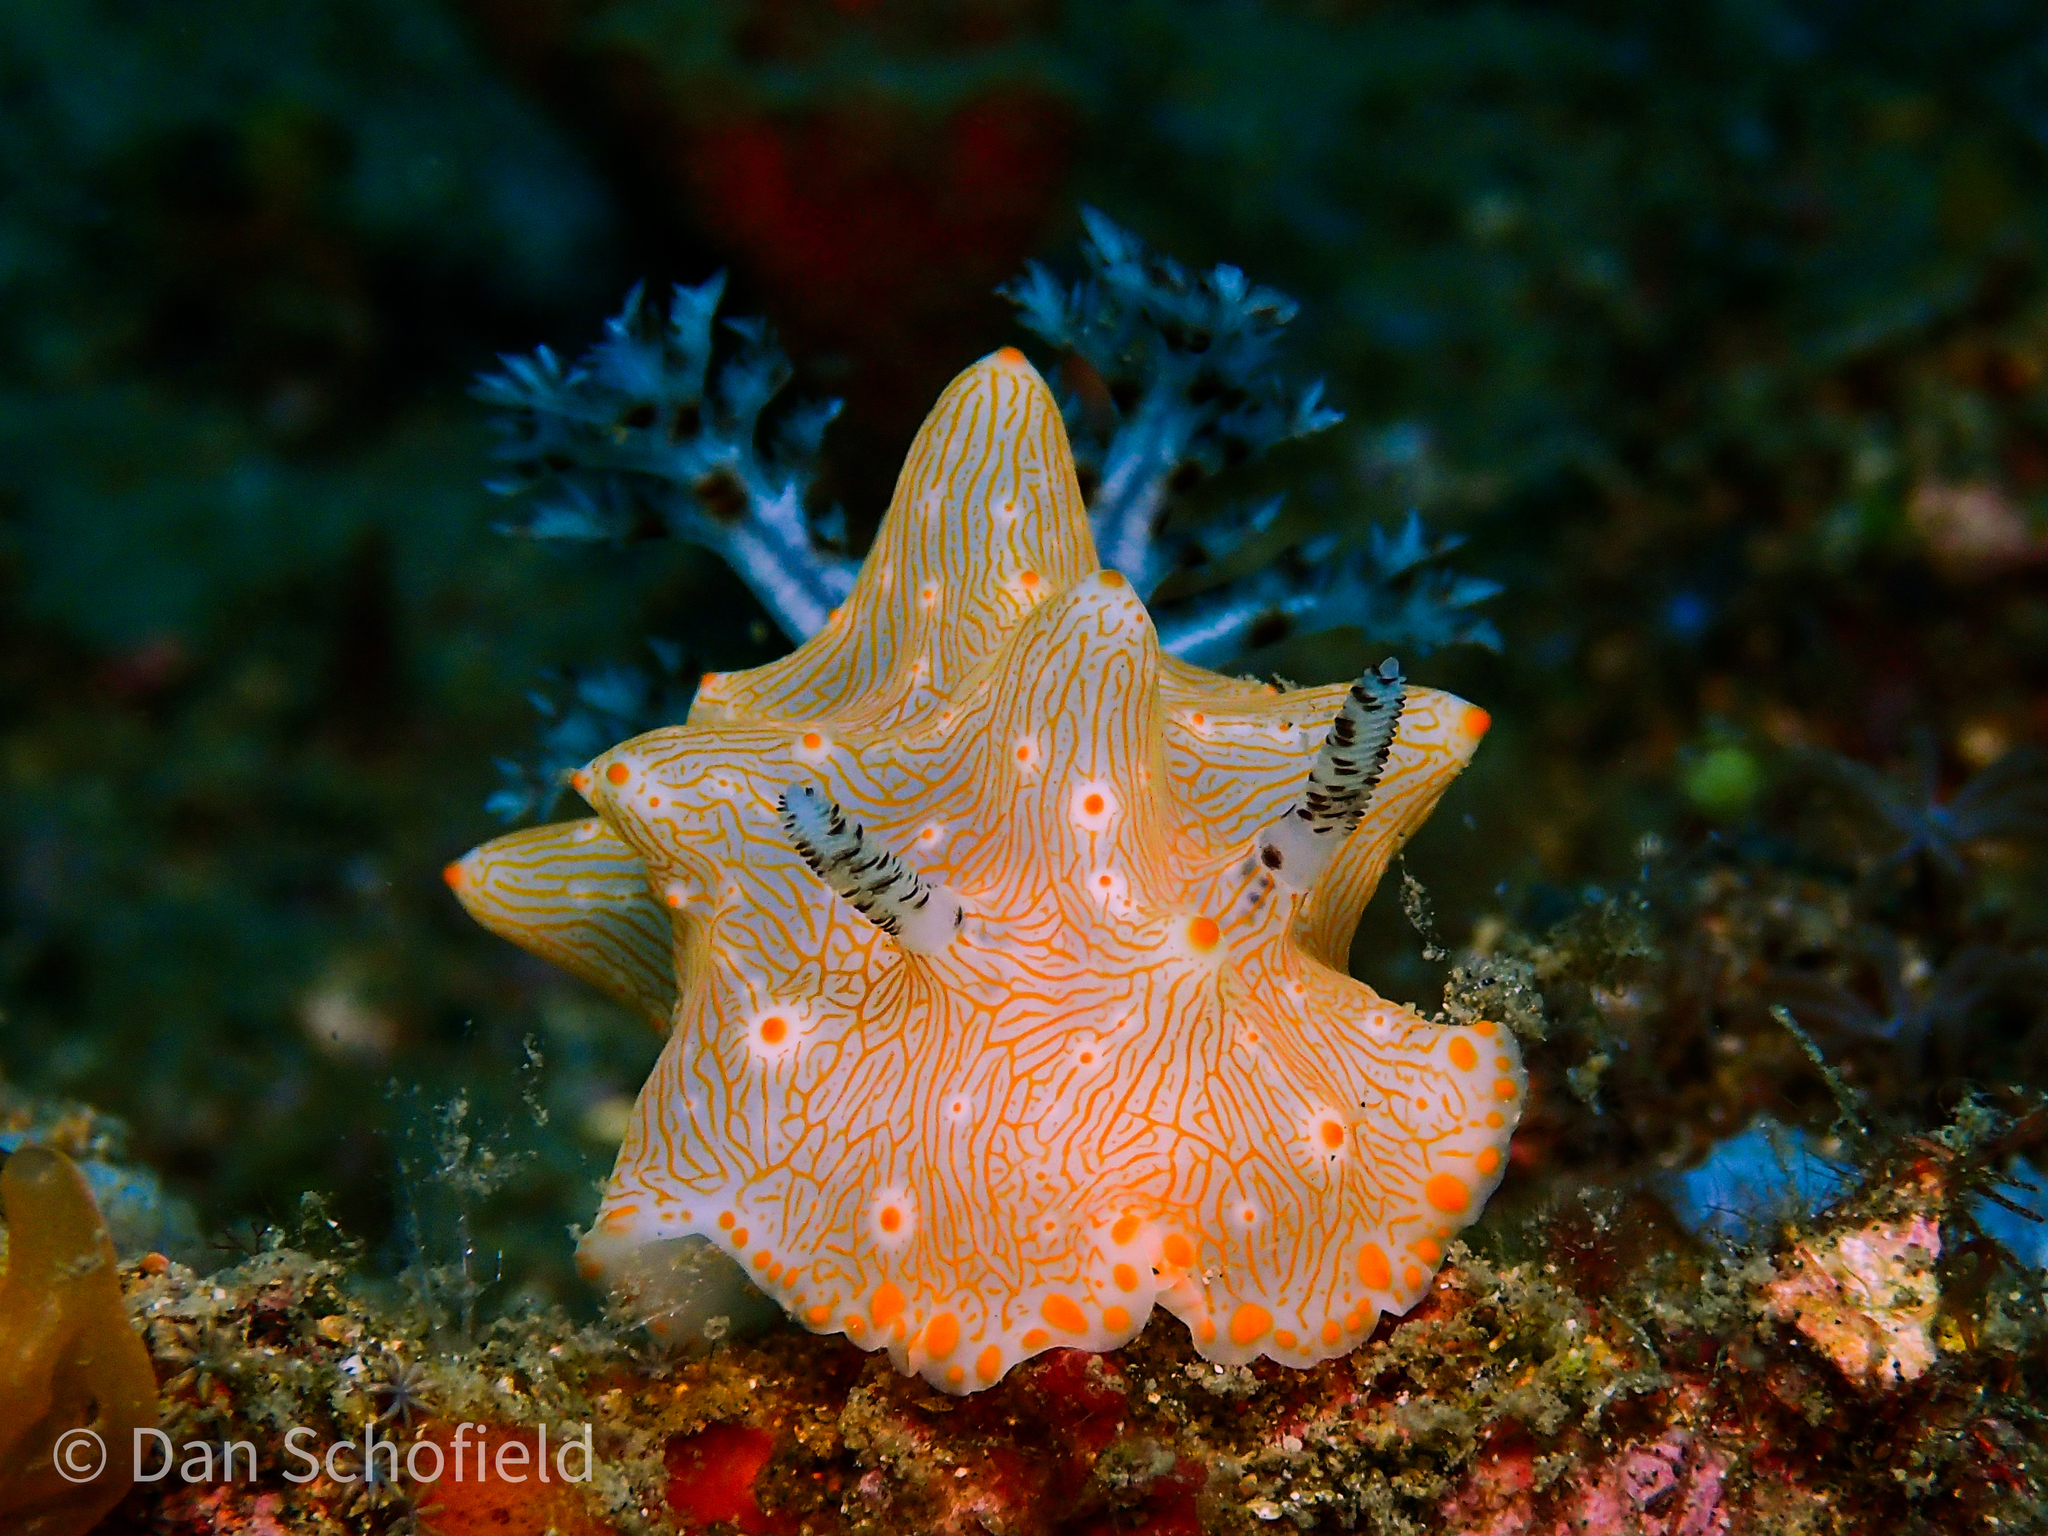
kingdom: Animalia
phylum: Mollusca
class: Gastropoda
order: Nudibranchia
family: Discodorididae
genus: Halgerda
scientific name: Halgerda batangas
